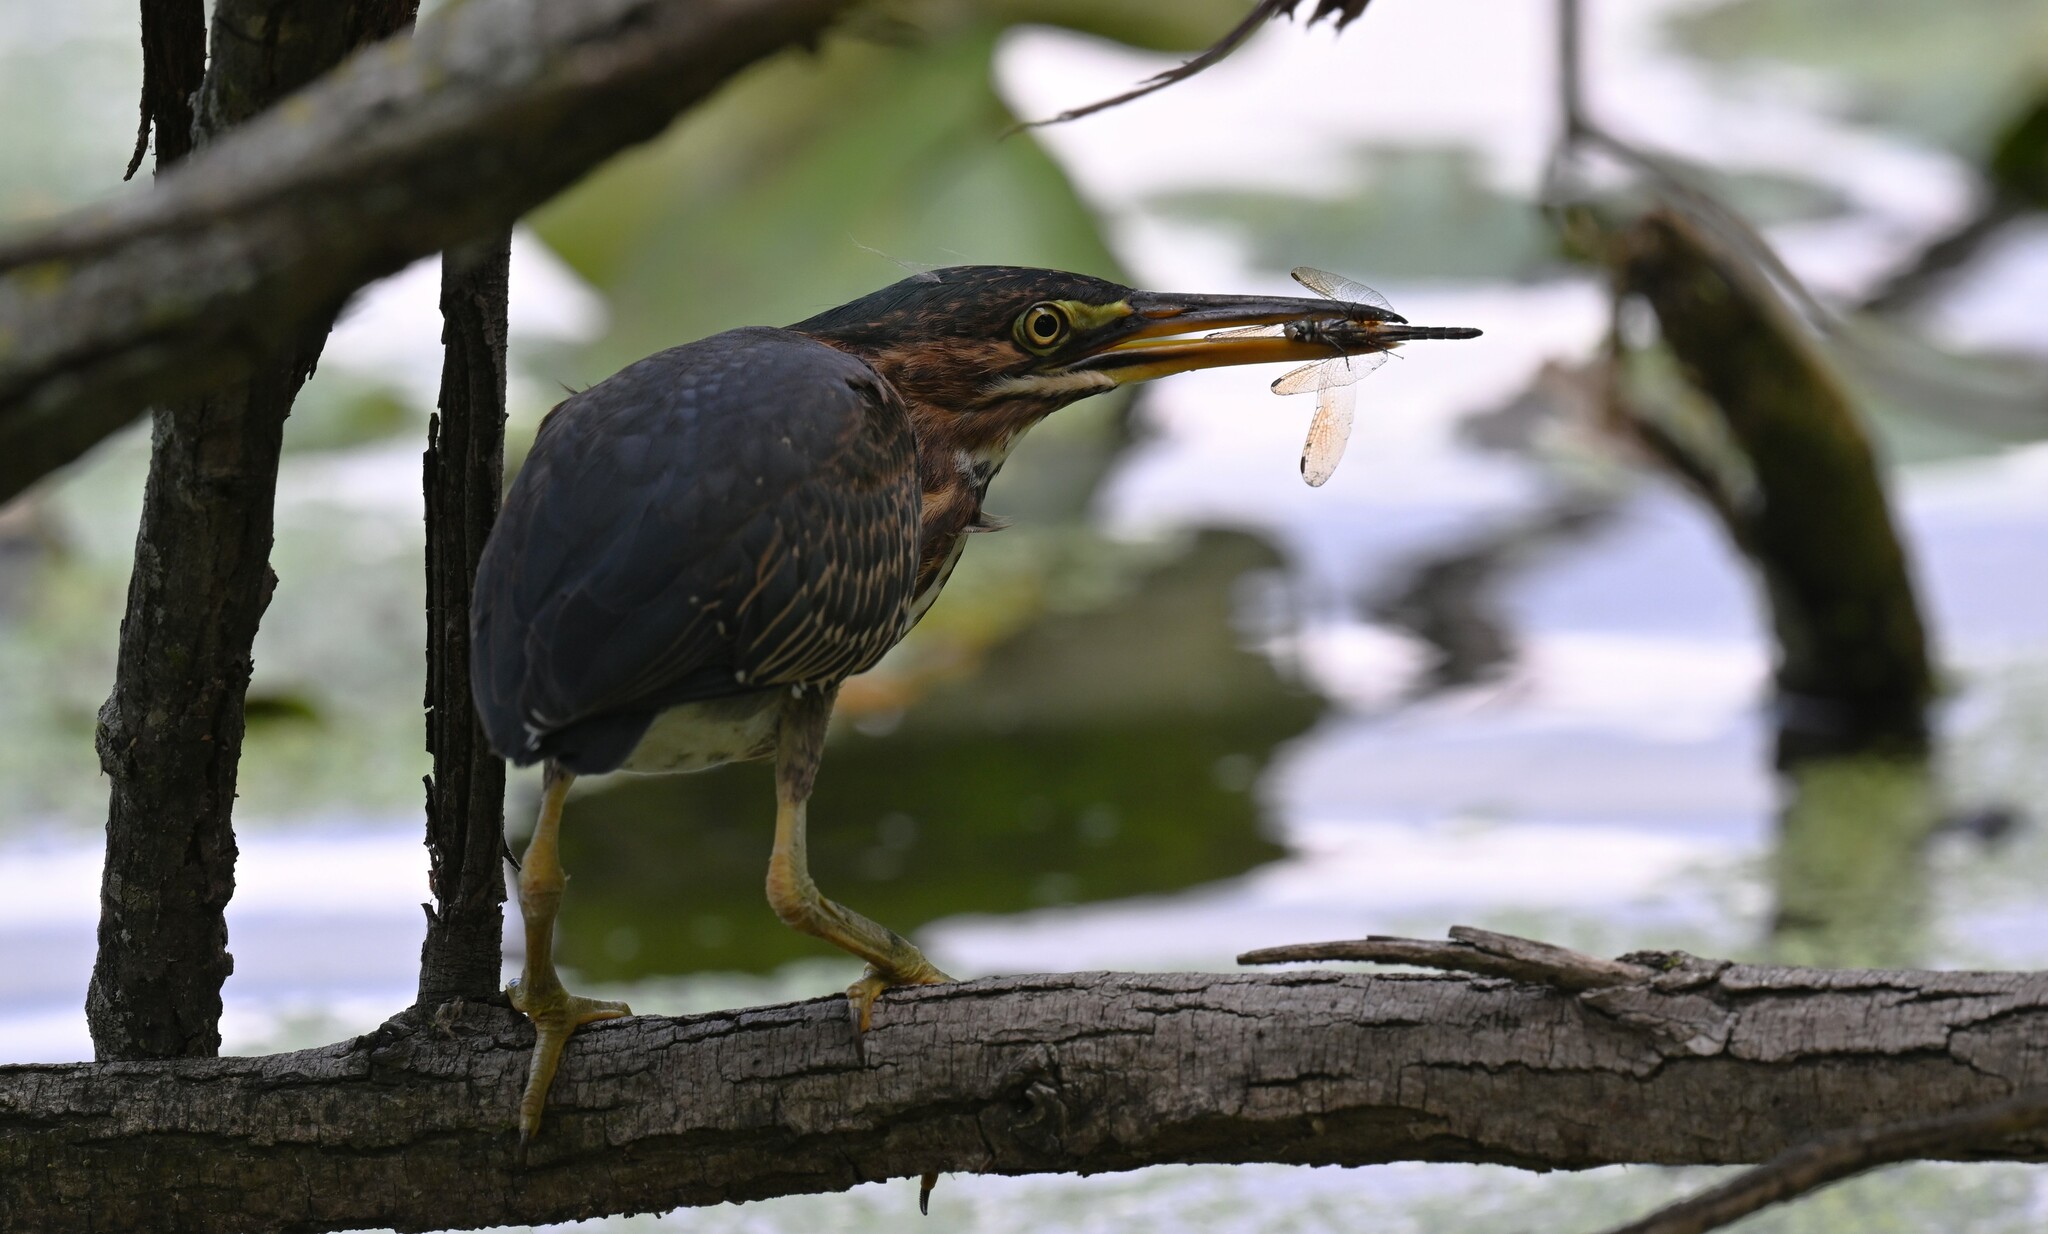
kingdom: Animalia
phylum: Chordata
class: Aves
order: Pelecaniformes
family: Ardeidae
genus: Butorides
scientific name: Butorides virescens
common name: Green heron
